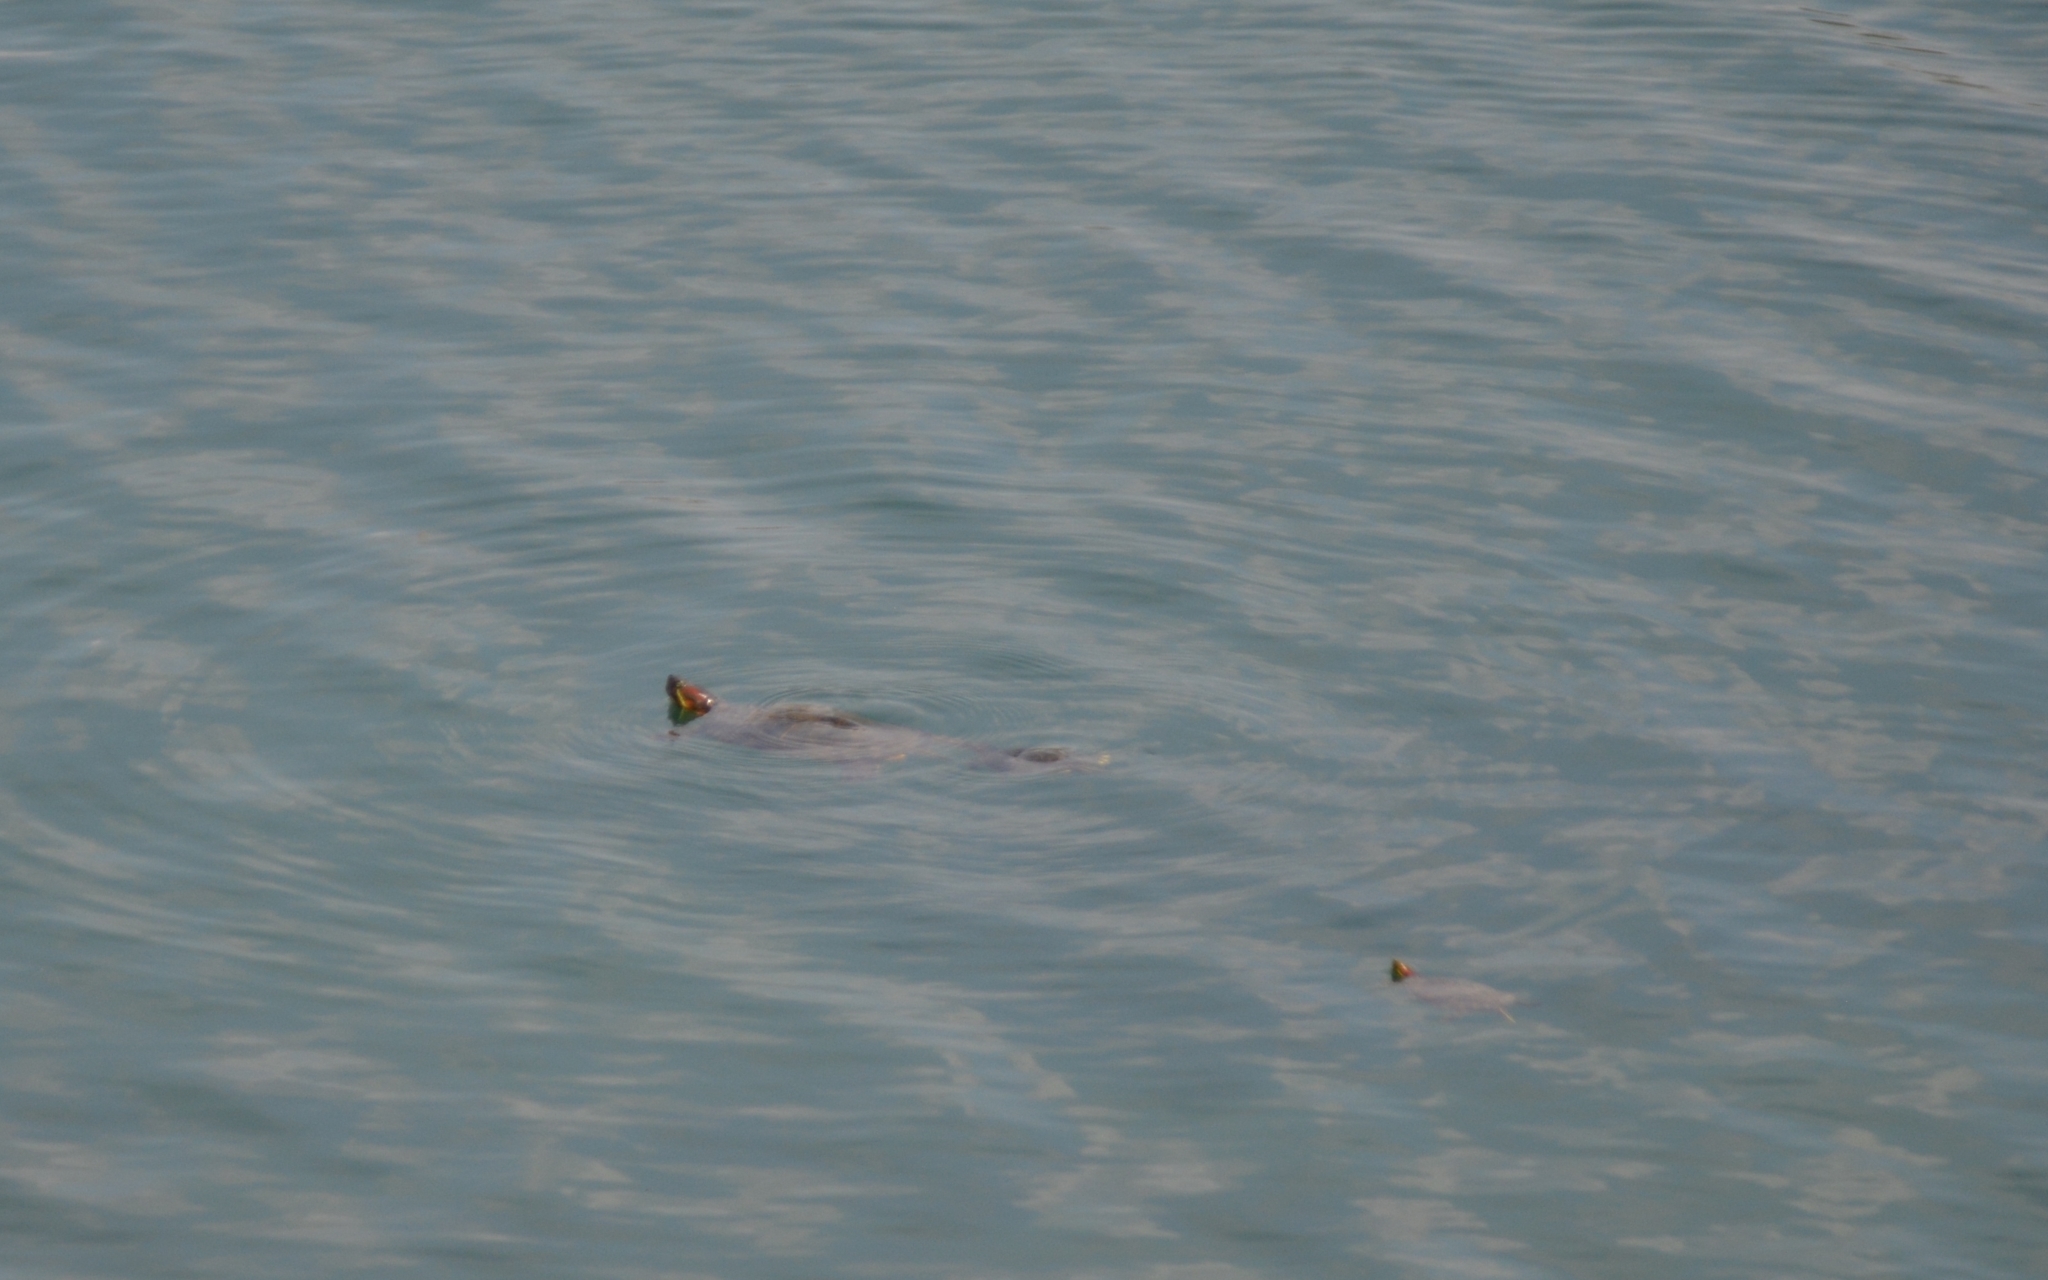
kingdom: Animalia
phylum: Chordata
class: Testudines
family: Emydidae
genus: Trachemys
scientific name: Trachemys scripta
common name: Slider
